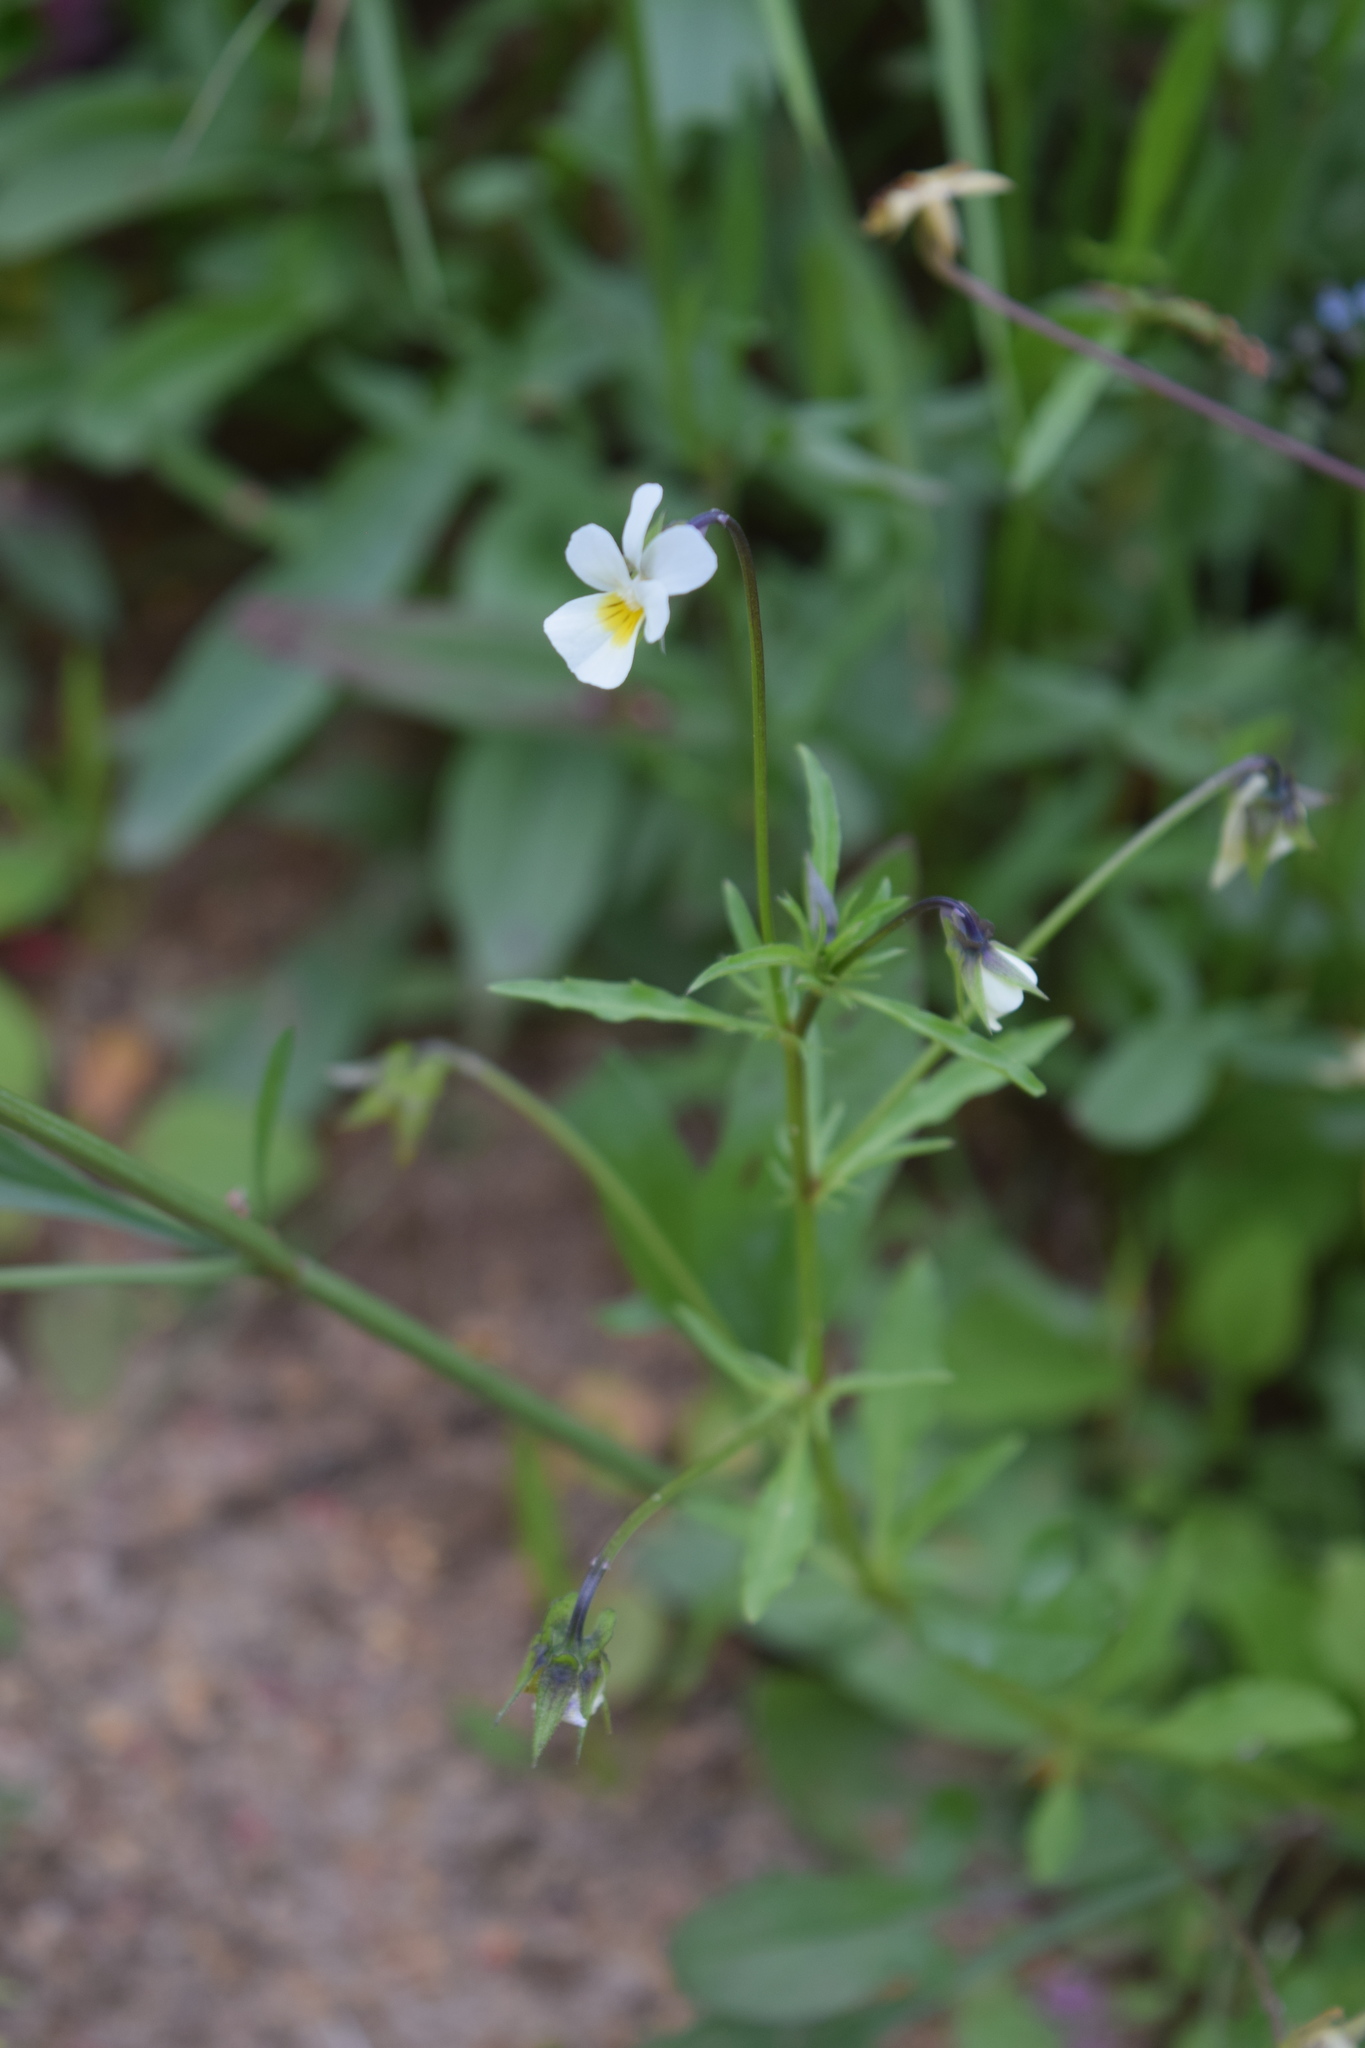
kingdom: Plantae
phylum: Tracheophyta
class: Magnoliopsida
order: Malpighiales
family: Violaceae
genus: Viola
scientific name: Viola arvensis
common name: Field pansy
